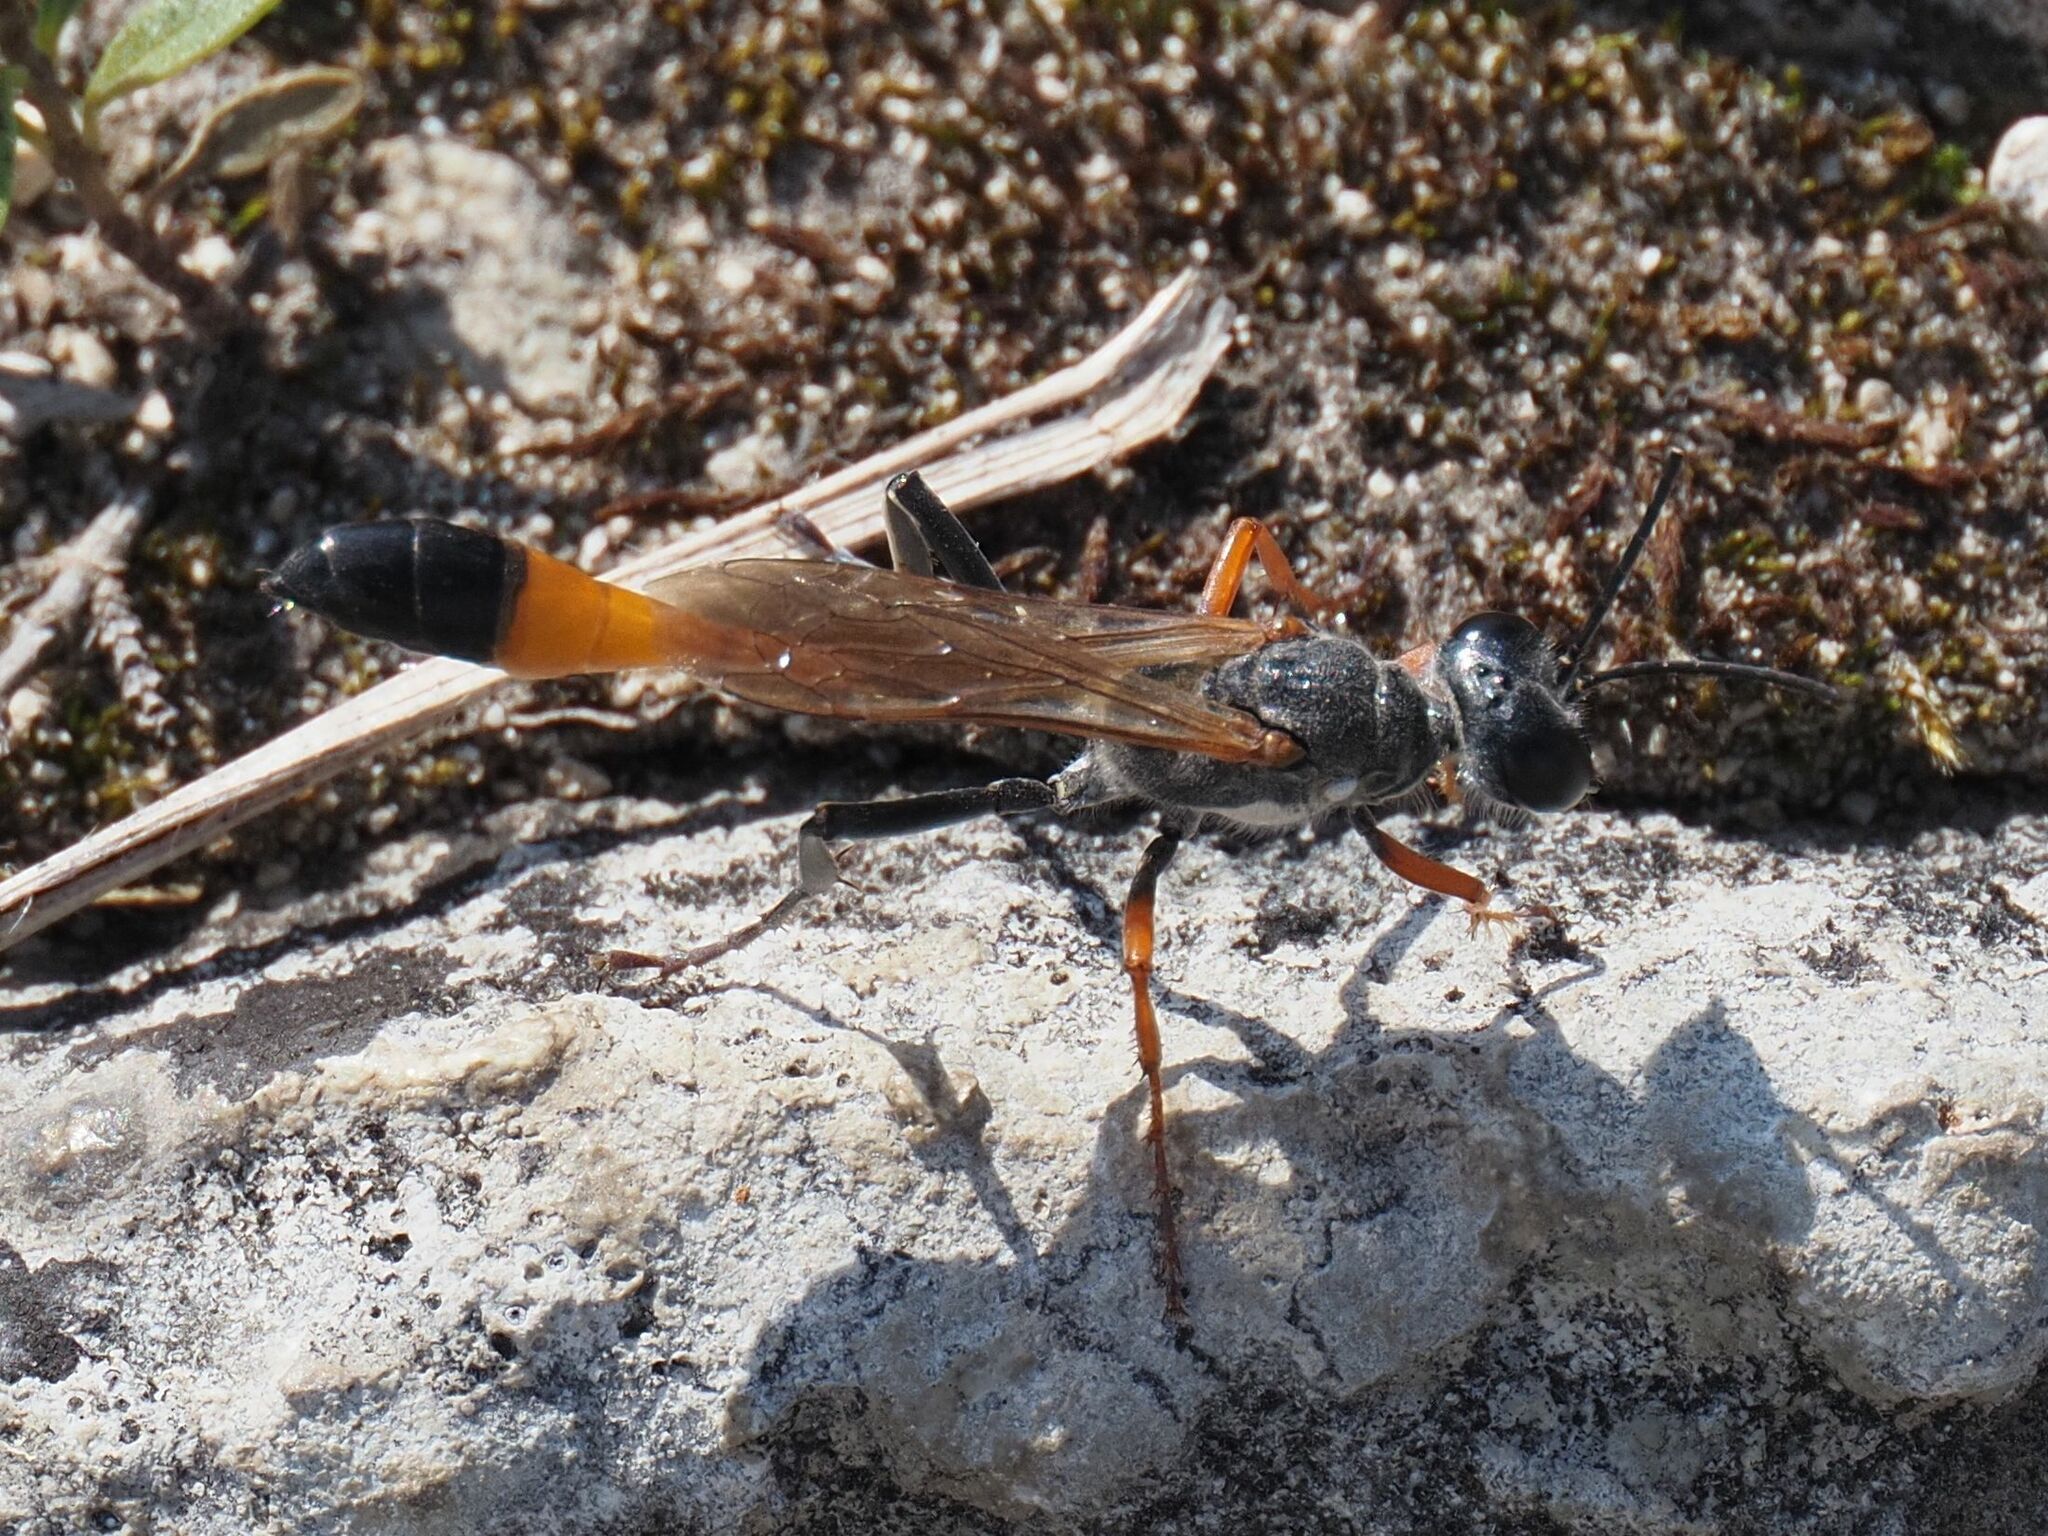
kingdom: Animalia
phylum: Arthropoda
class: Insecta
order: Hymenoptera
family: Sphecidae
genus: Ammophila
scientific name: Ammophila heydeni
